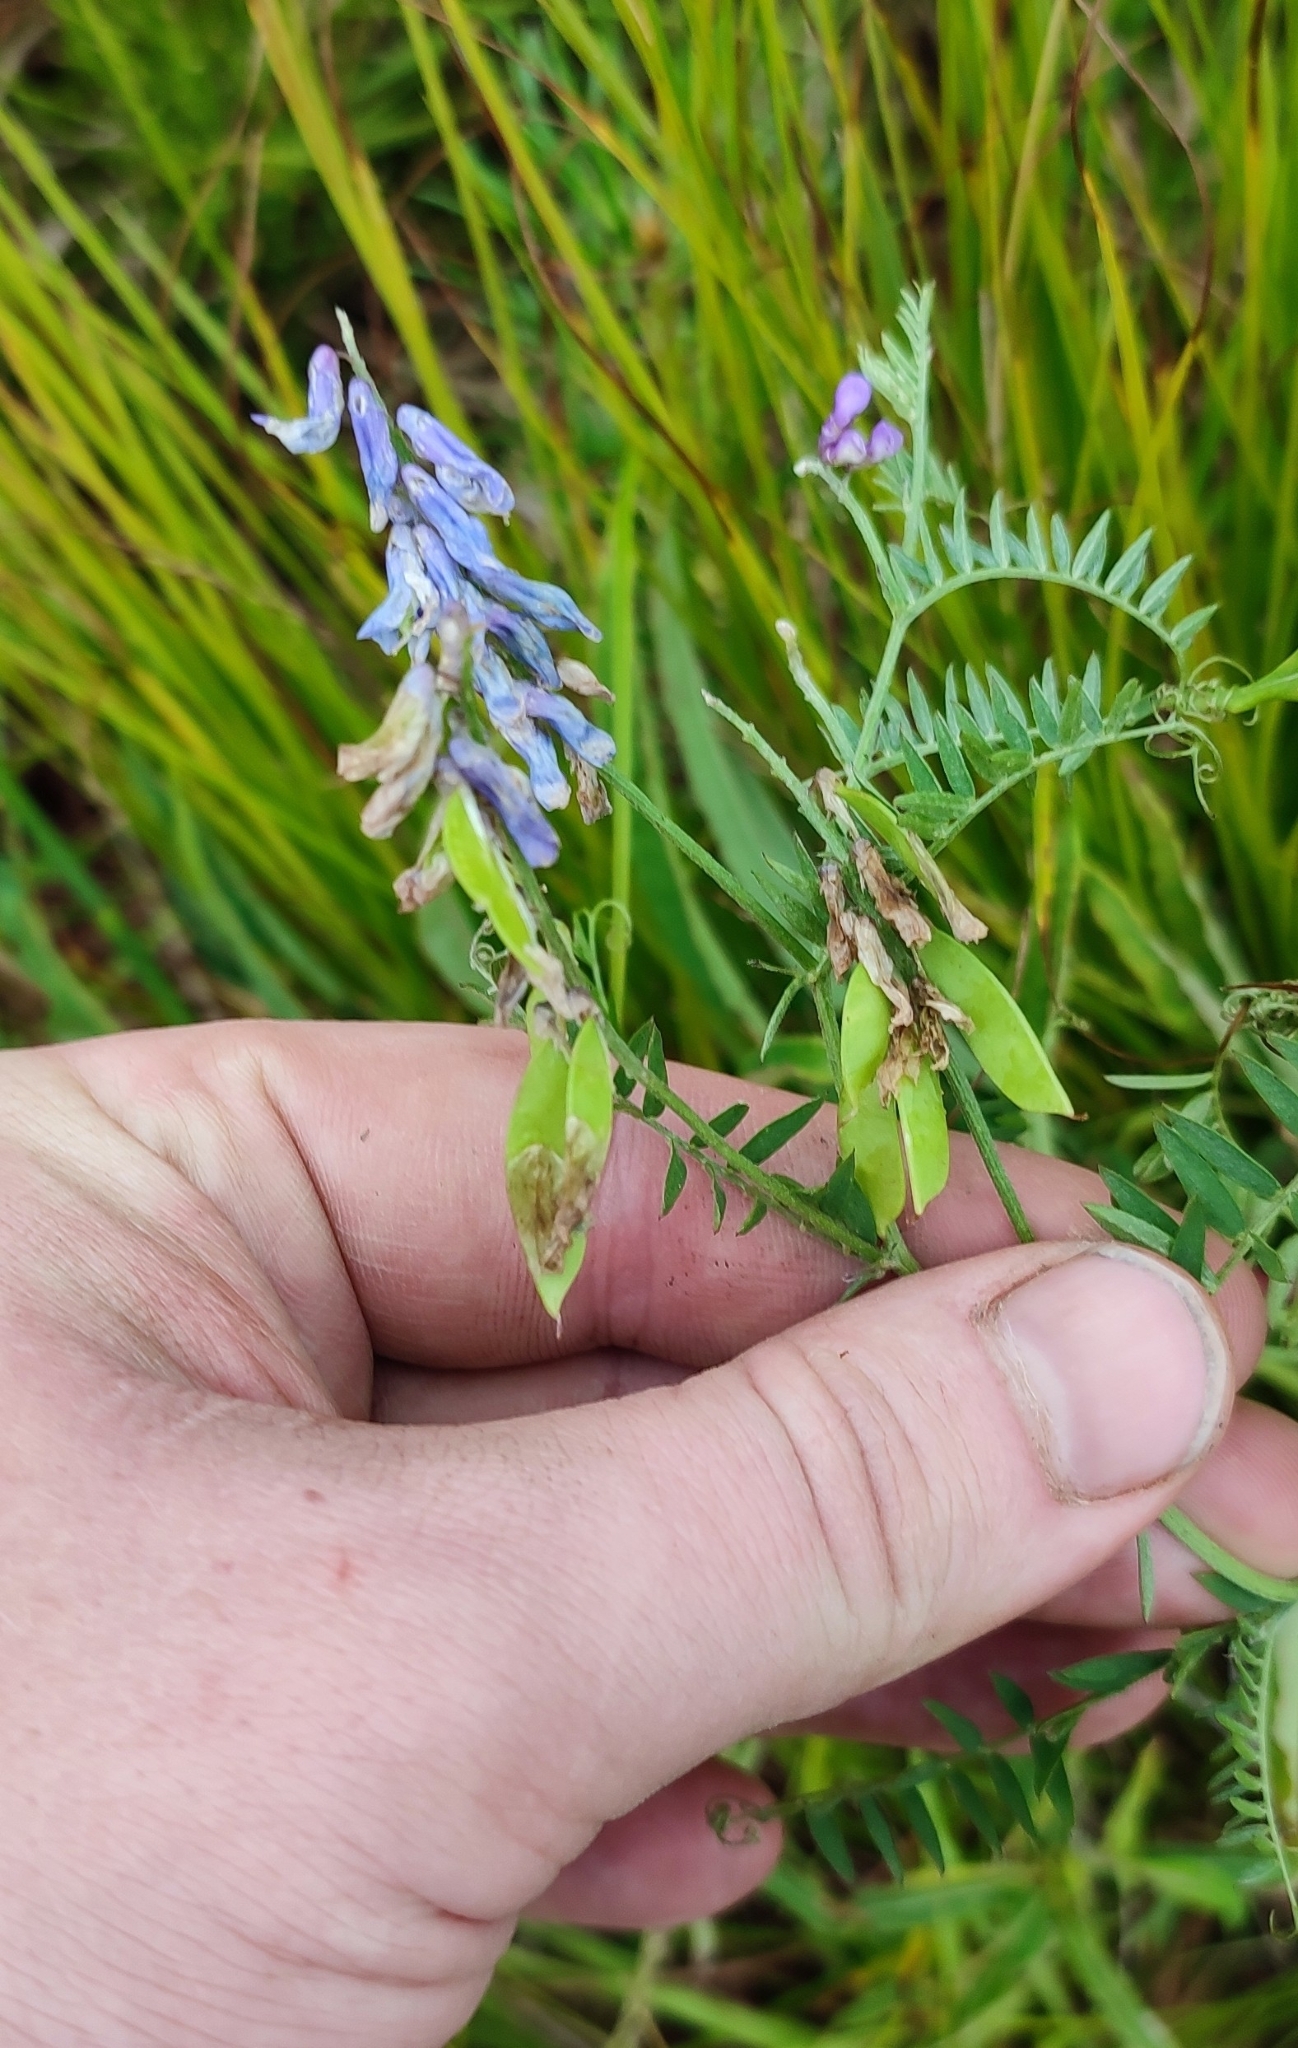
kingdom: Plantae
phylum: Tracheophyta
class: Magnoliopsida
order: Fabales
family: Fabaceae
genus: Vicia
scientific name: Vicia cracca
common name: Bird vetch
